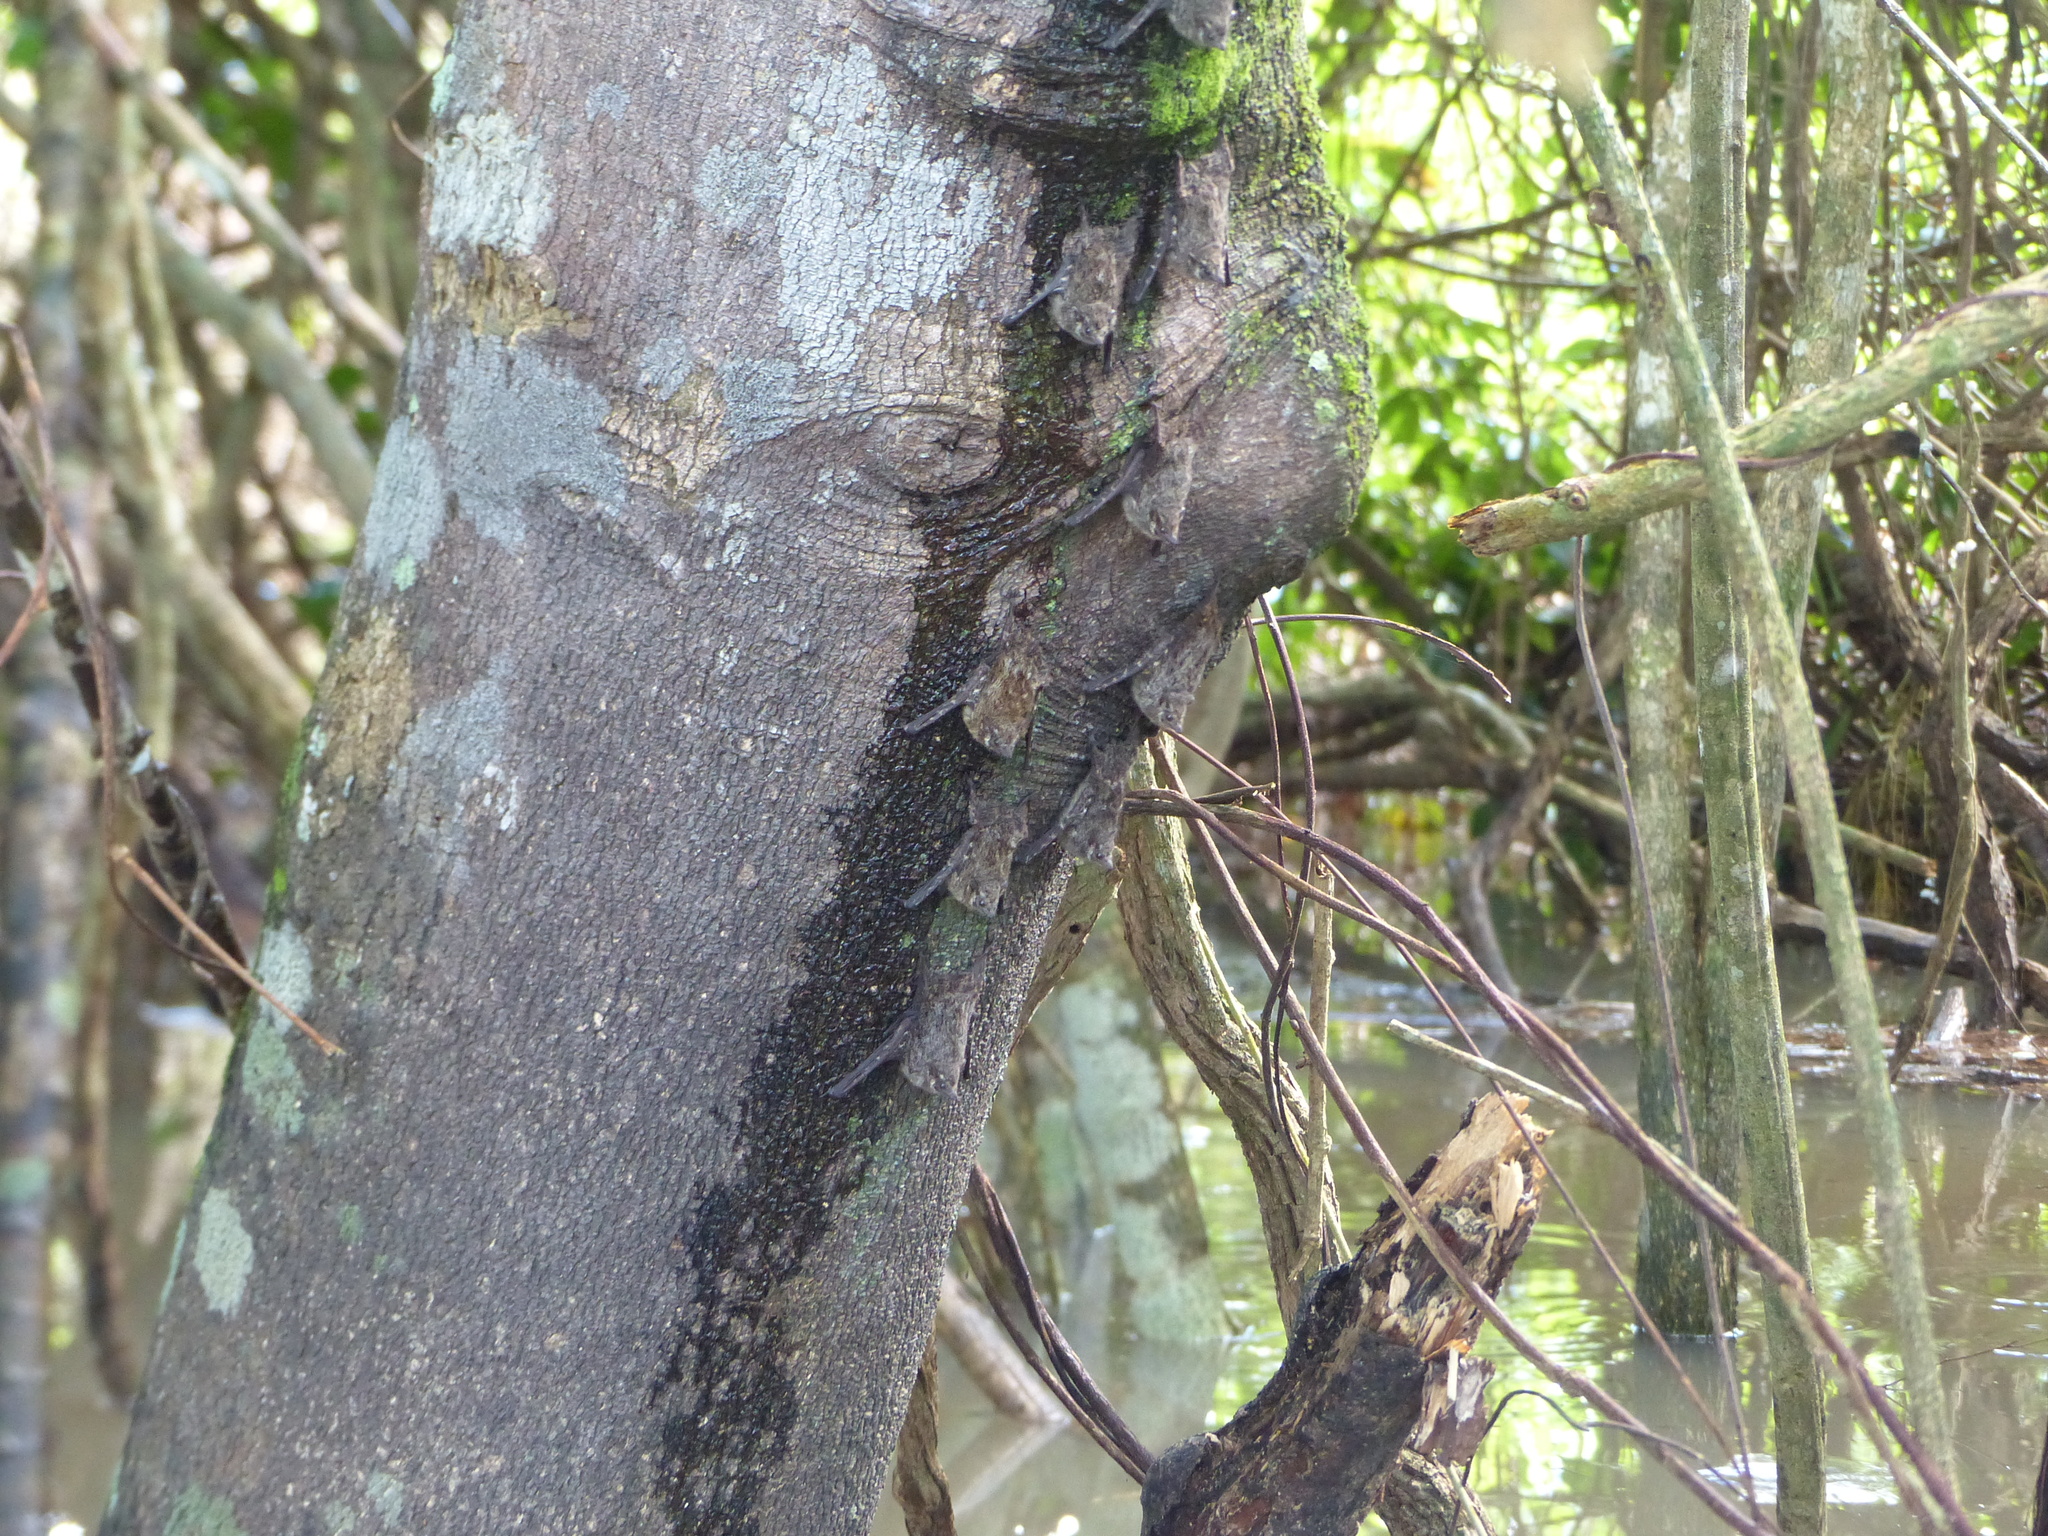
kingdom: Animalia
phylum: Chordata
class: Mammalia
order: Chiroptera
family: Emballonuridae
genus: Rhynchonycteris
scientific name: Rhynchonycteris naso
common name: Proboscis bat
